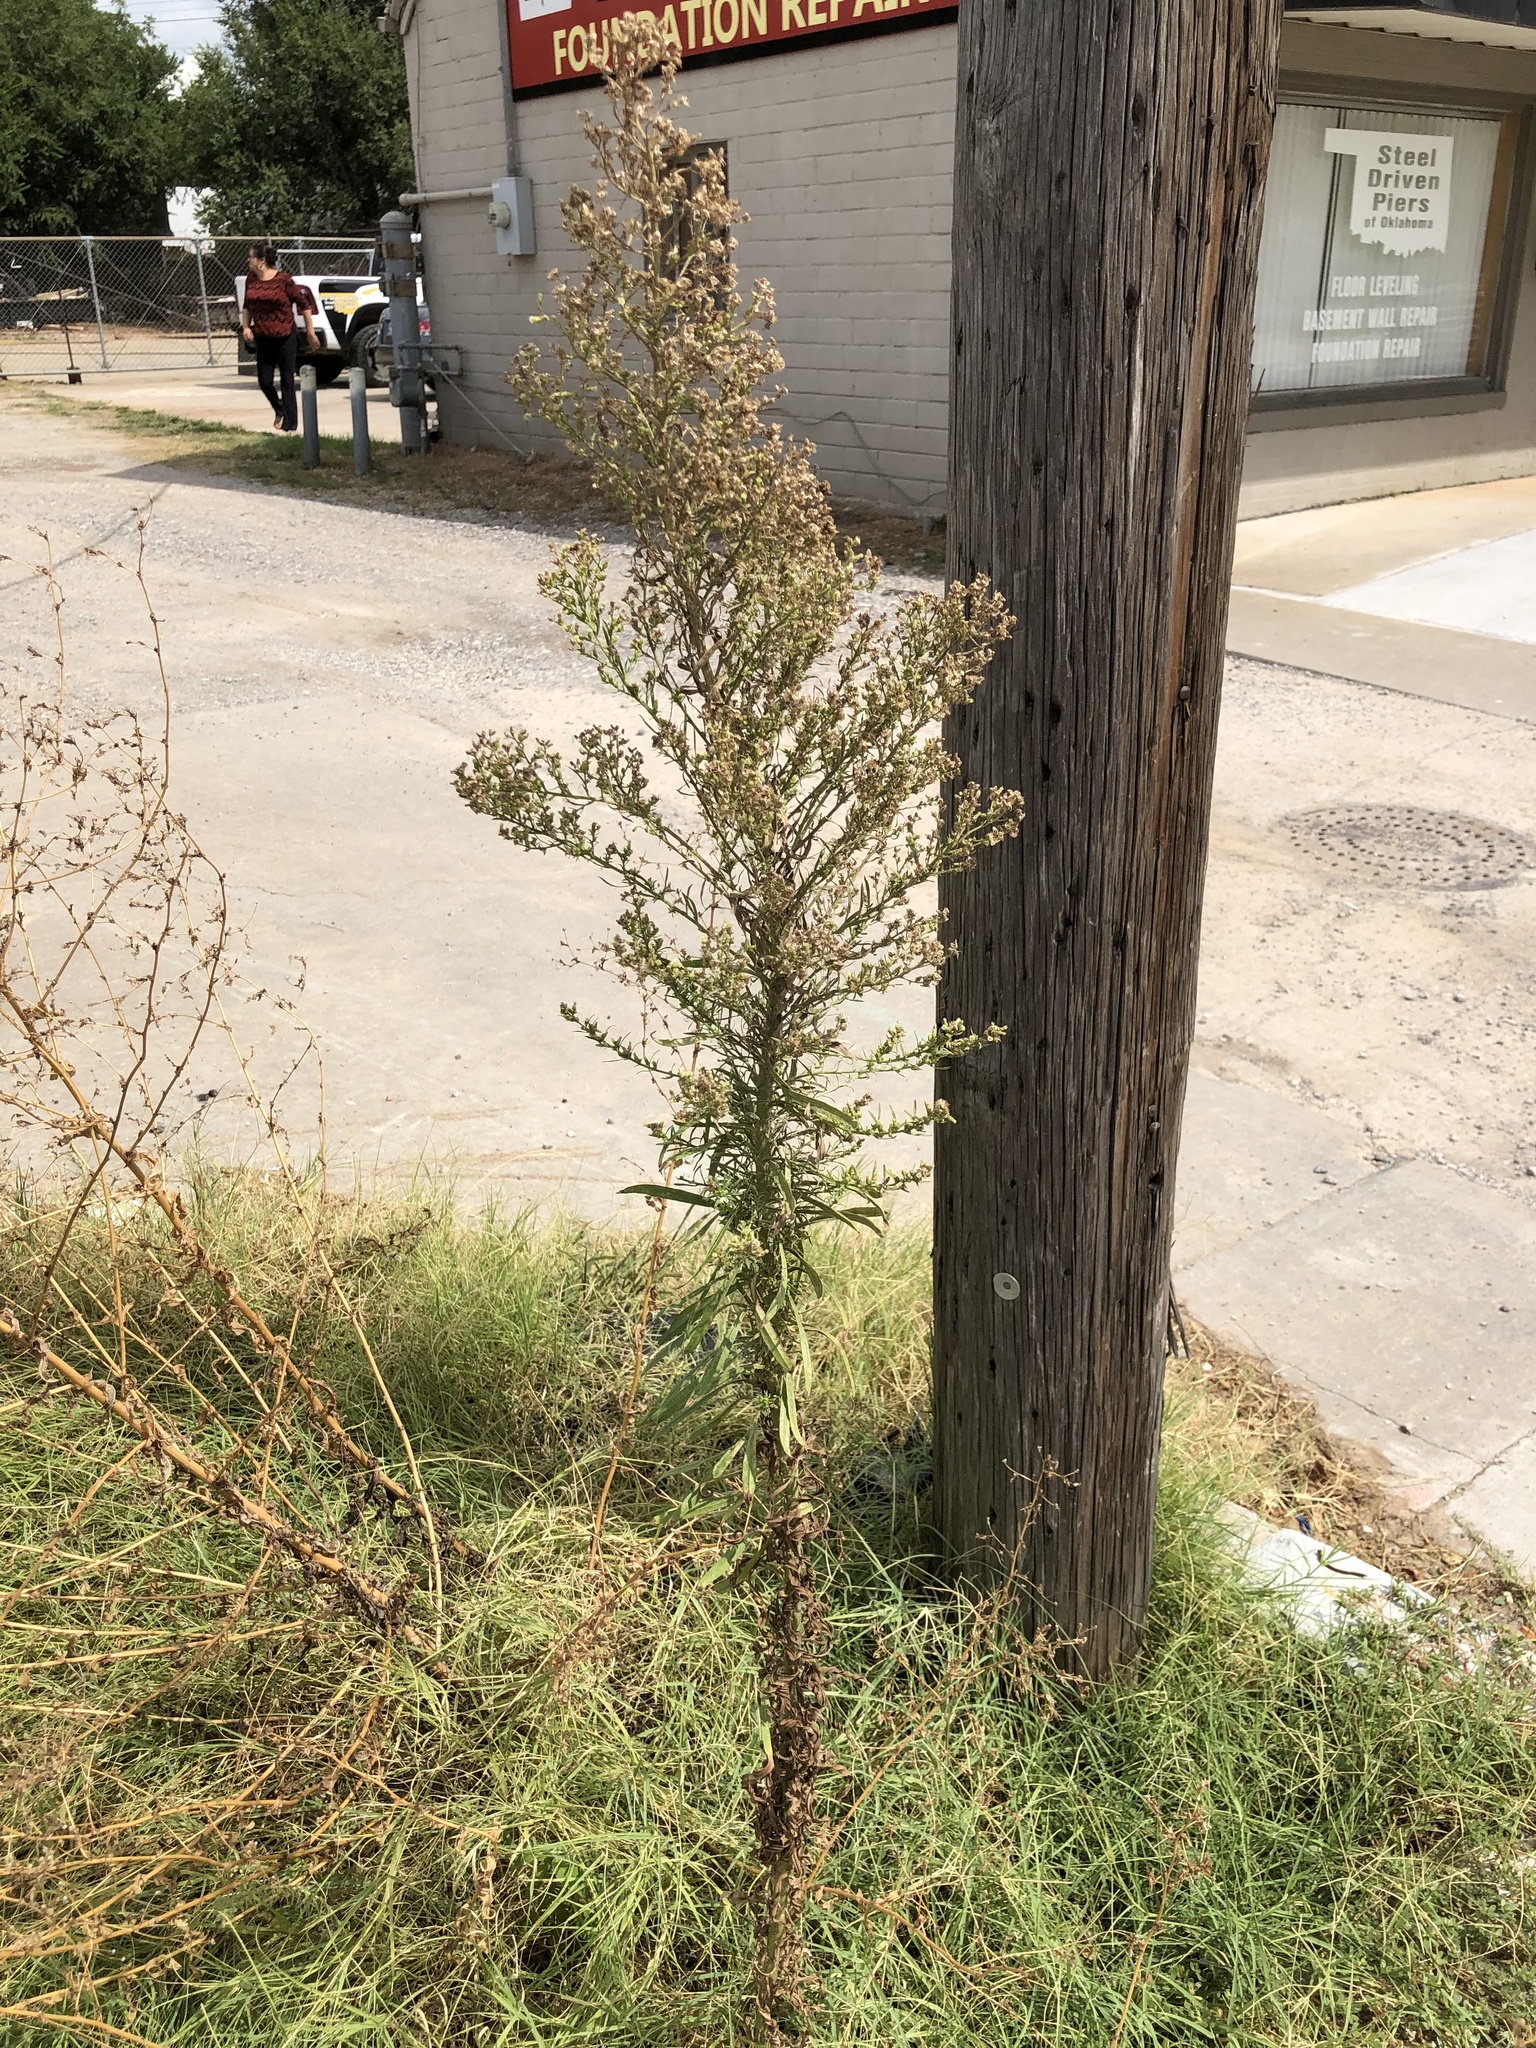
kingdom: Plantae
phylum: Tracheophyta
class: Magnoliopsida
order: Asterales
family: Asteraceae
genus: Erigeron
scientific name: Erigeron canadensis
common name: Canadian fleabane
